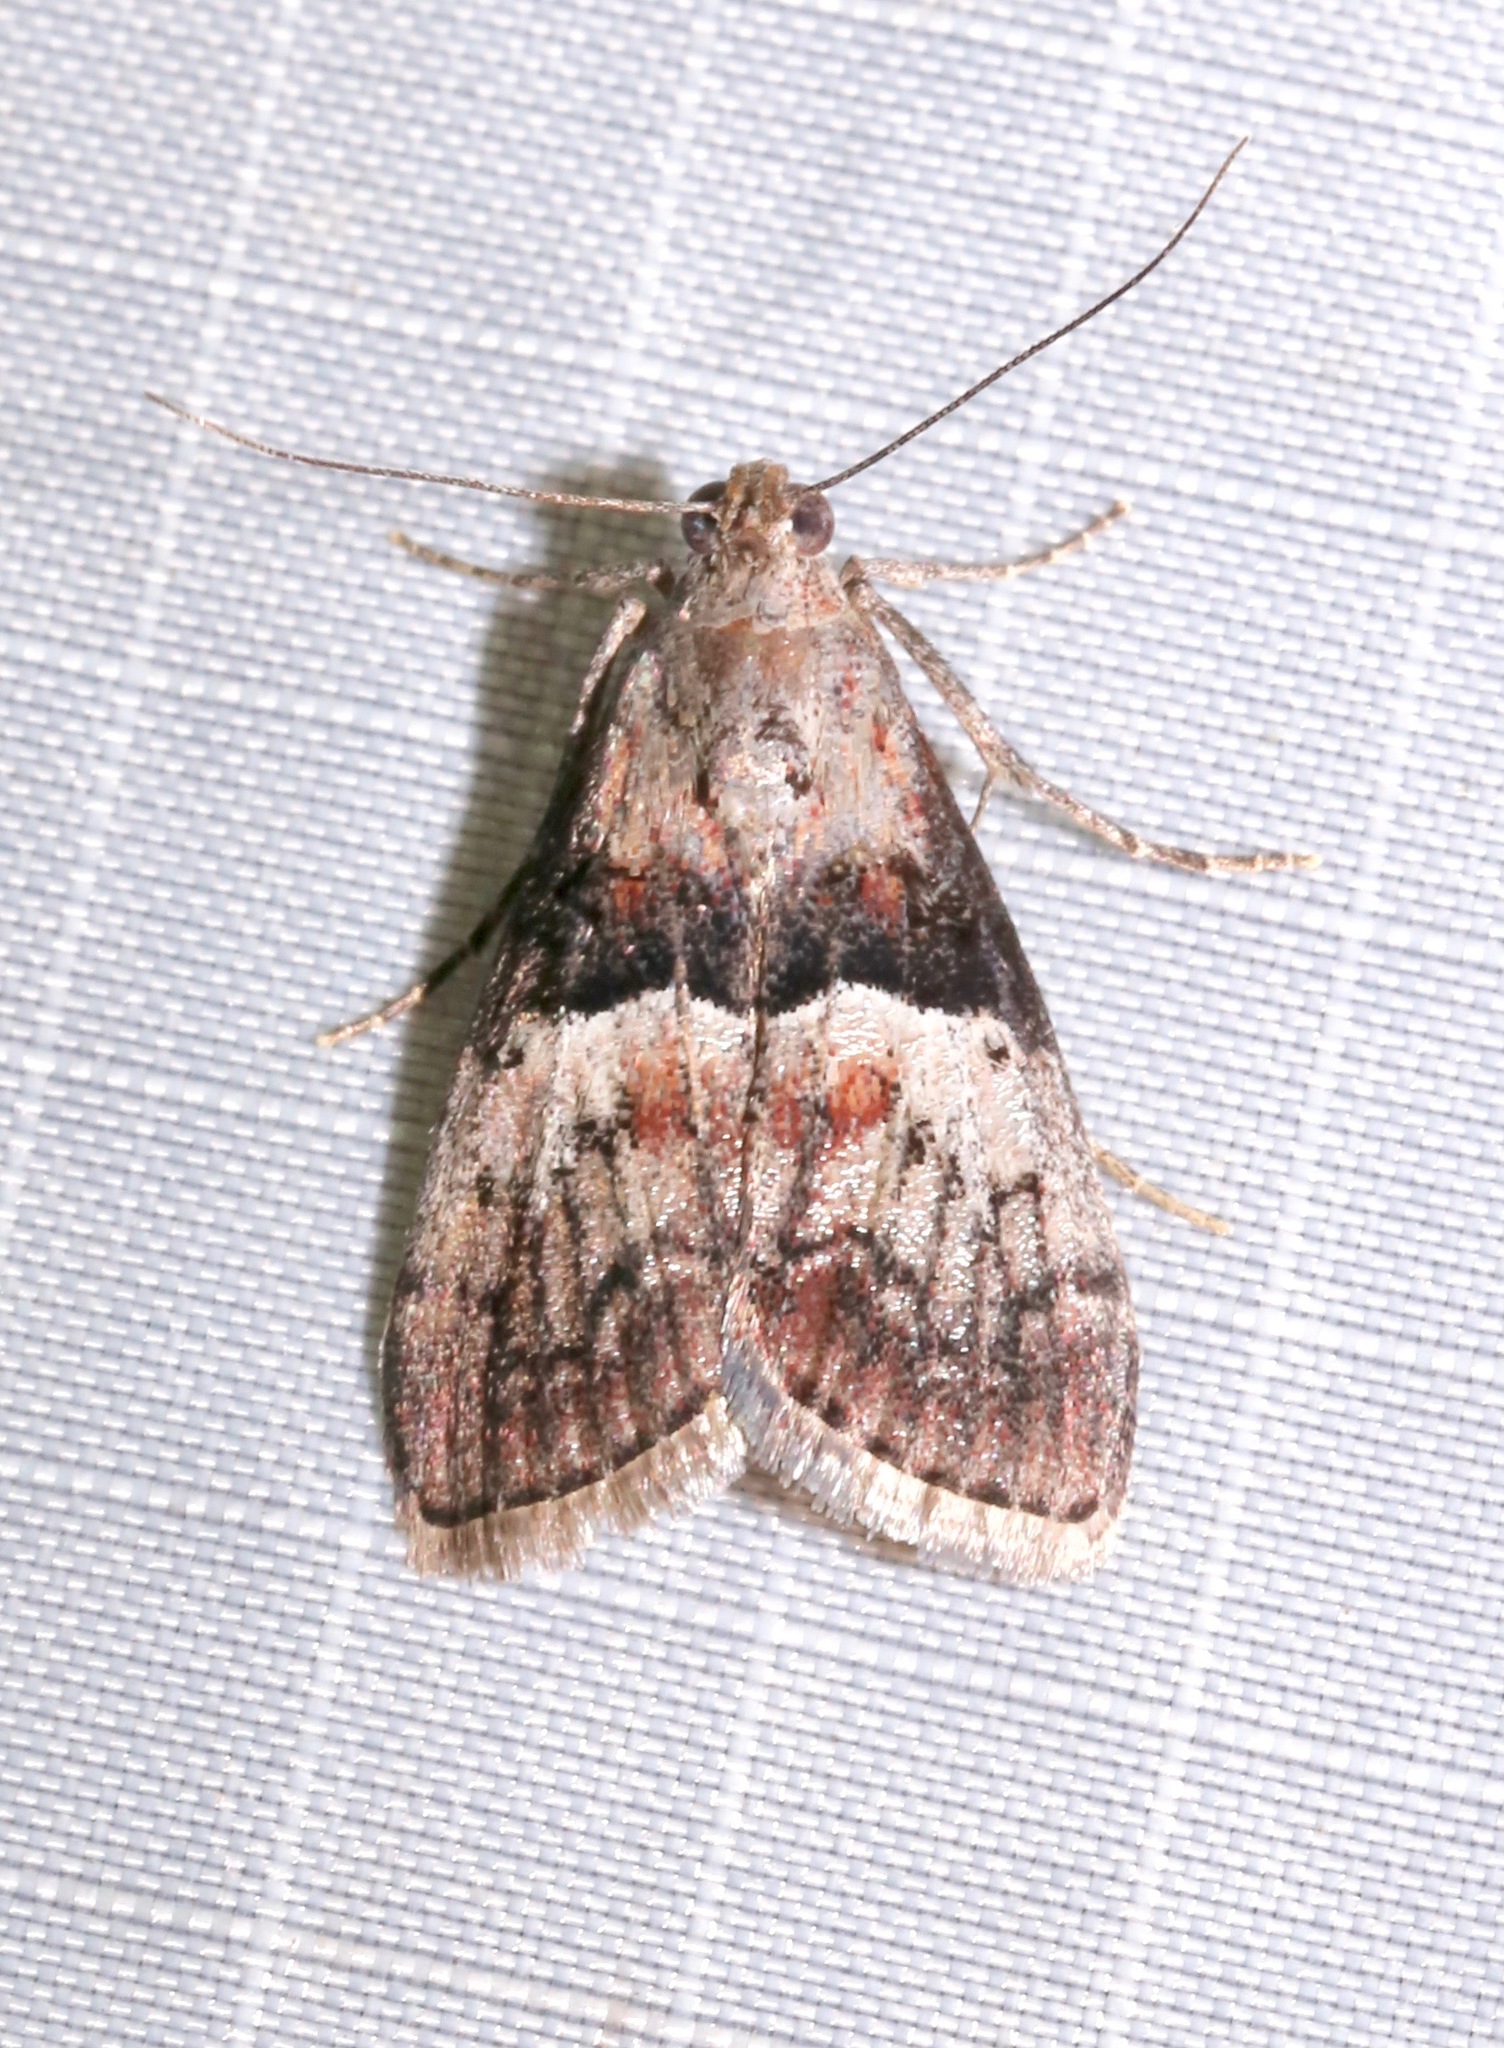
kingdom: Animalia
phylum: Arthropoda
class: Insecta
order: Lepidoptera
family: Pyralidae
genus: Pococera
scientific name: Pococera robustella
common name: Pine webworm moth
